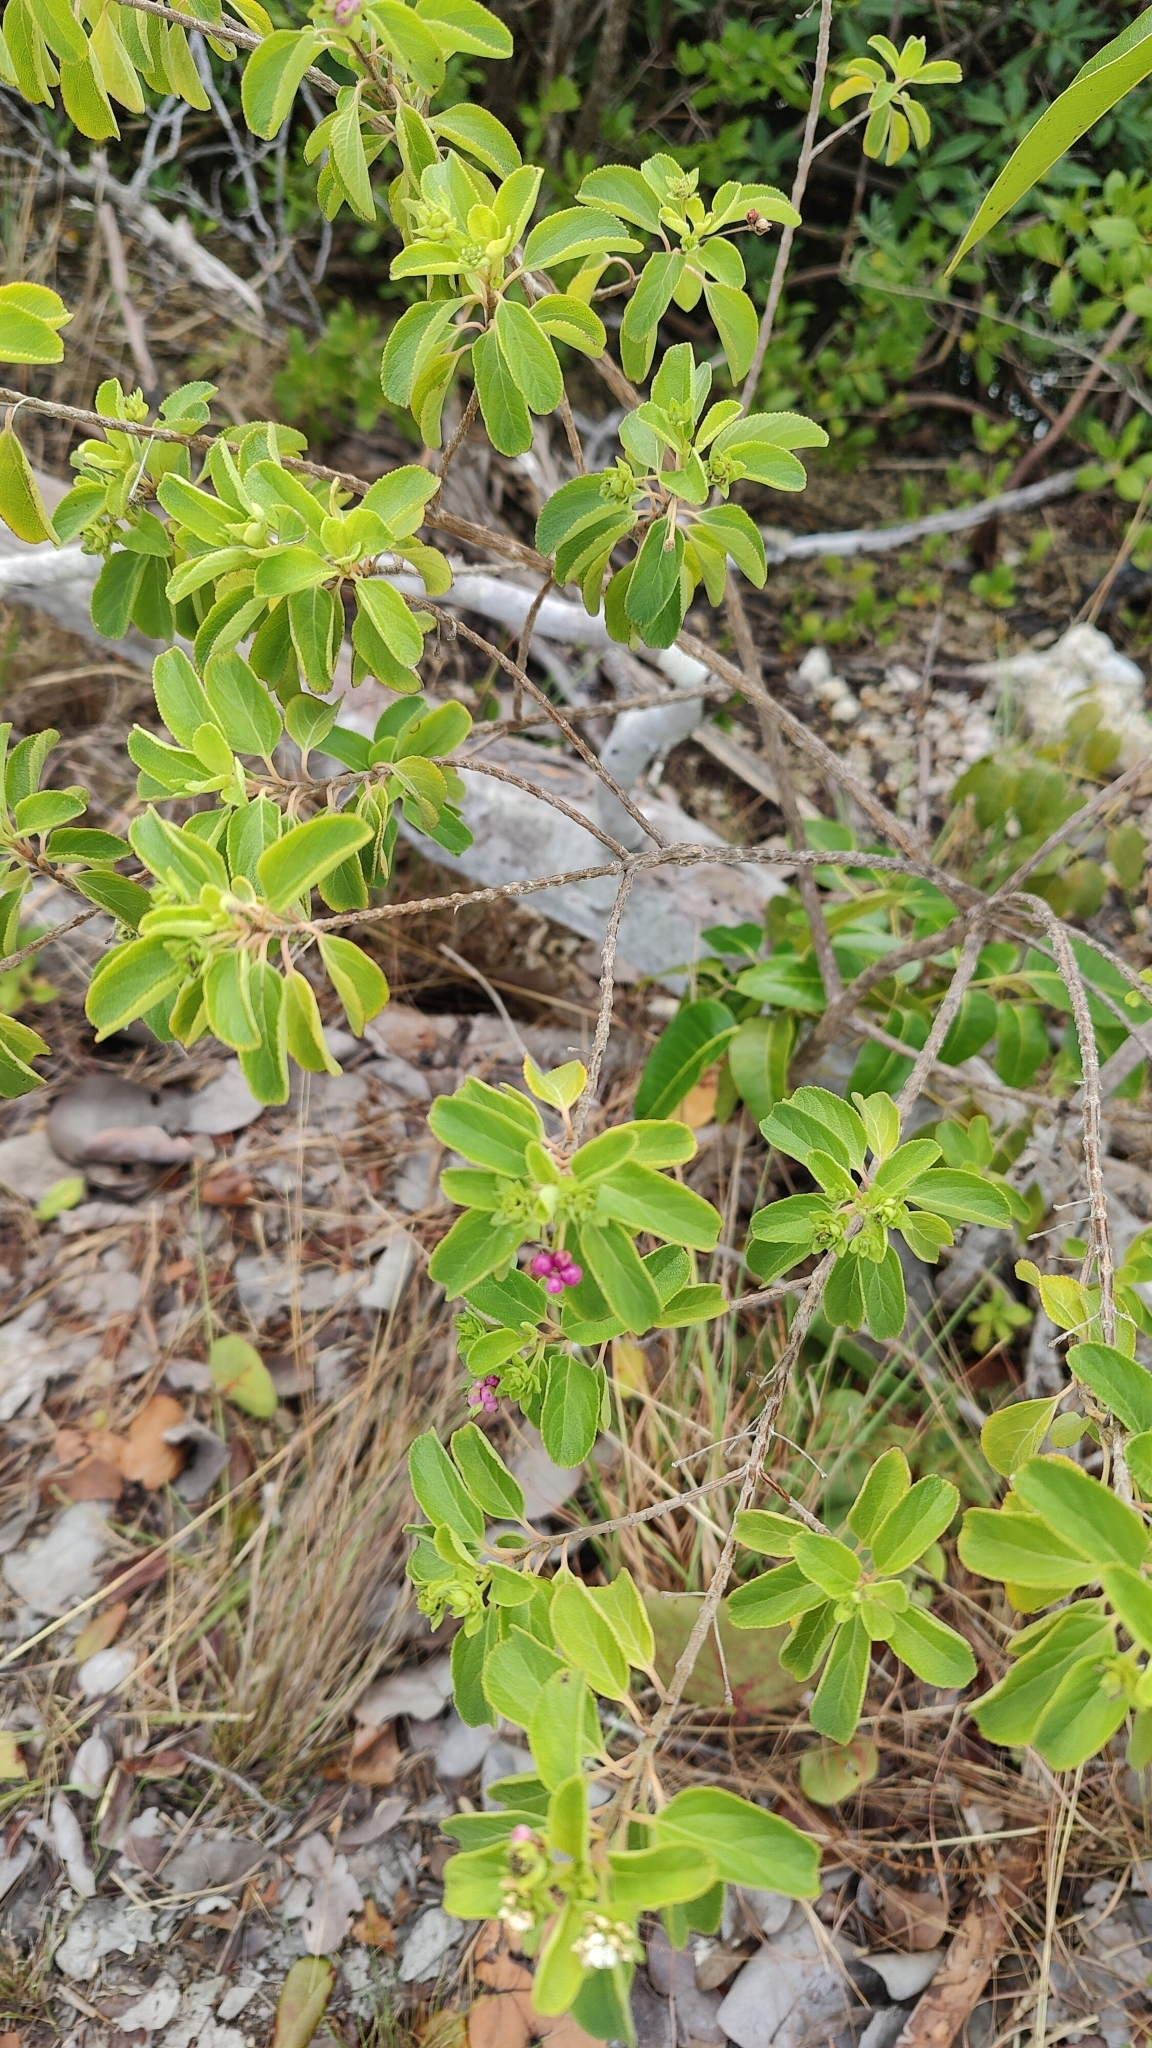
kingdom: Plantae
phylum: Tracheophyta
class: Magnoliopsida
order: Lamiales
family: Verbenaceae
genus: Lantana
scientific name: Lantana involucrata
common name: Black sage
